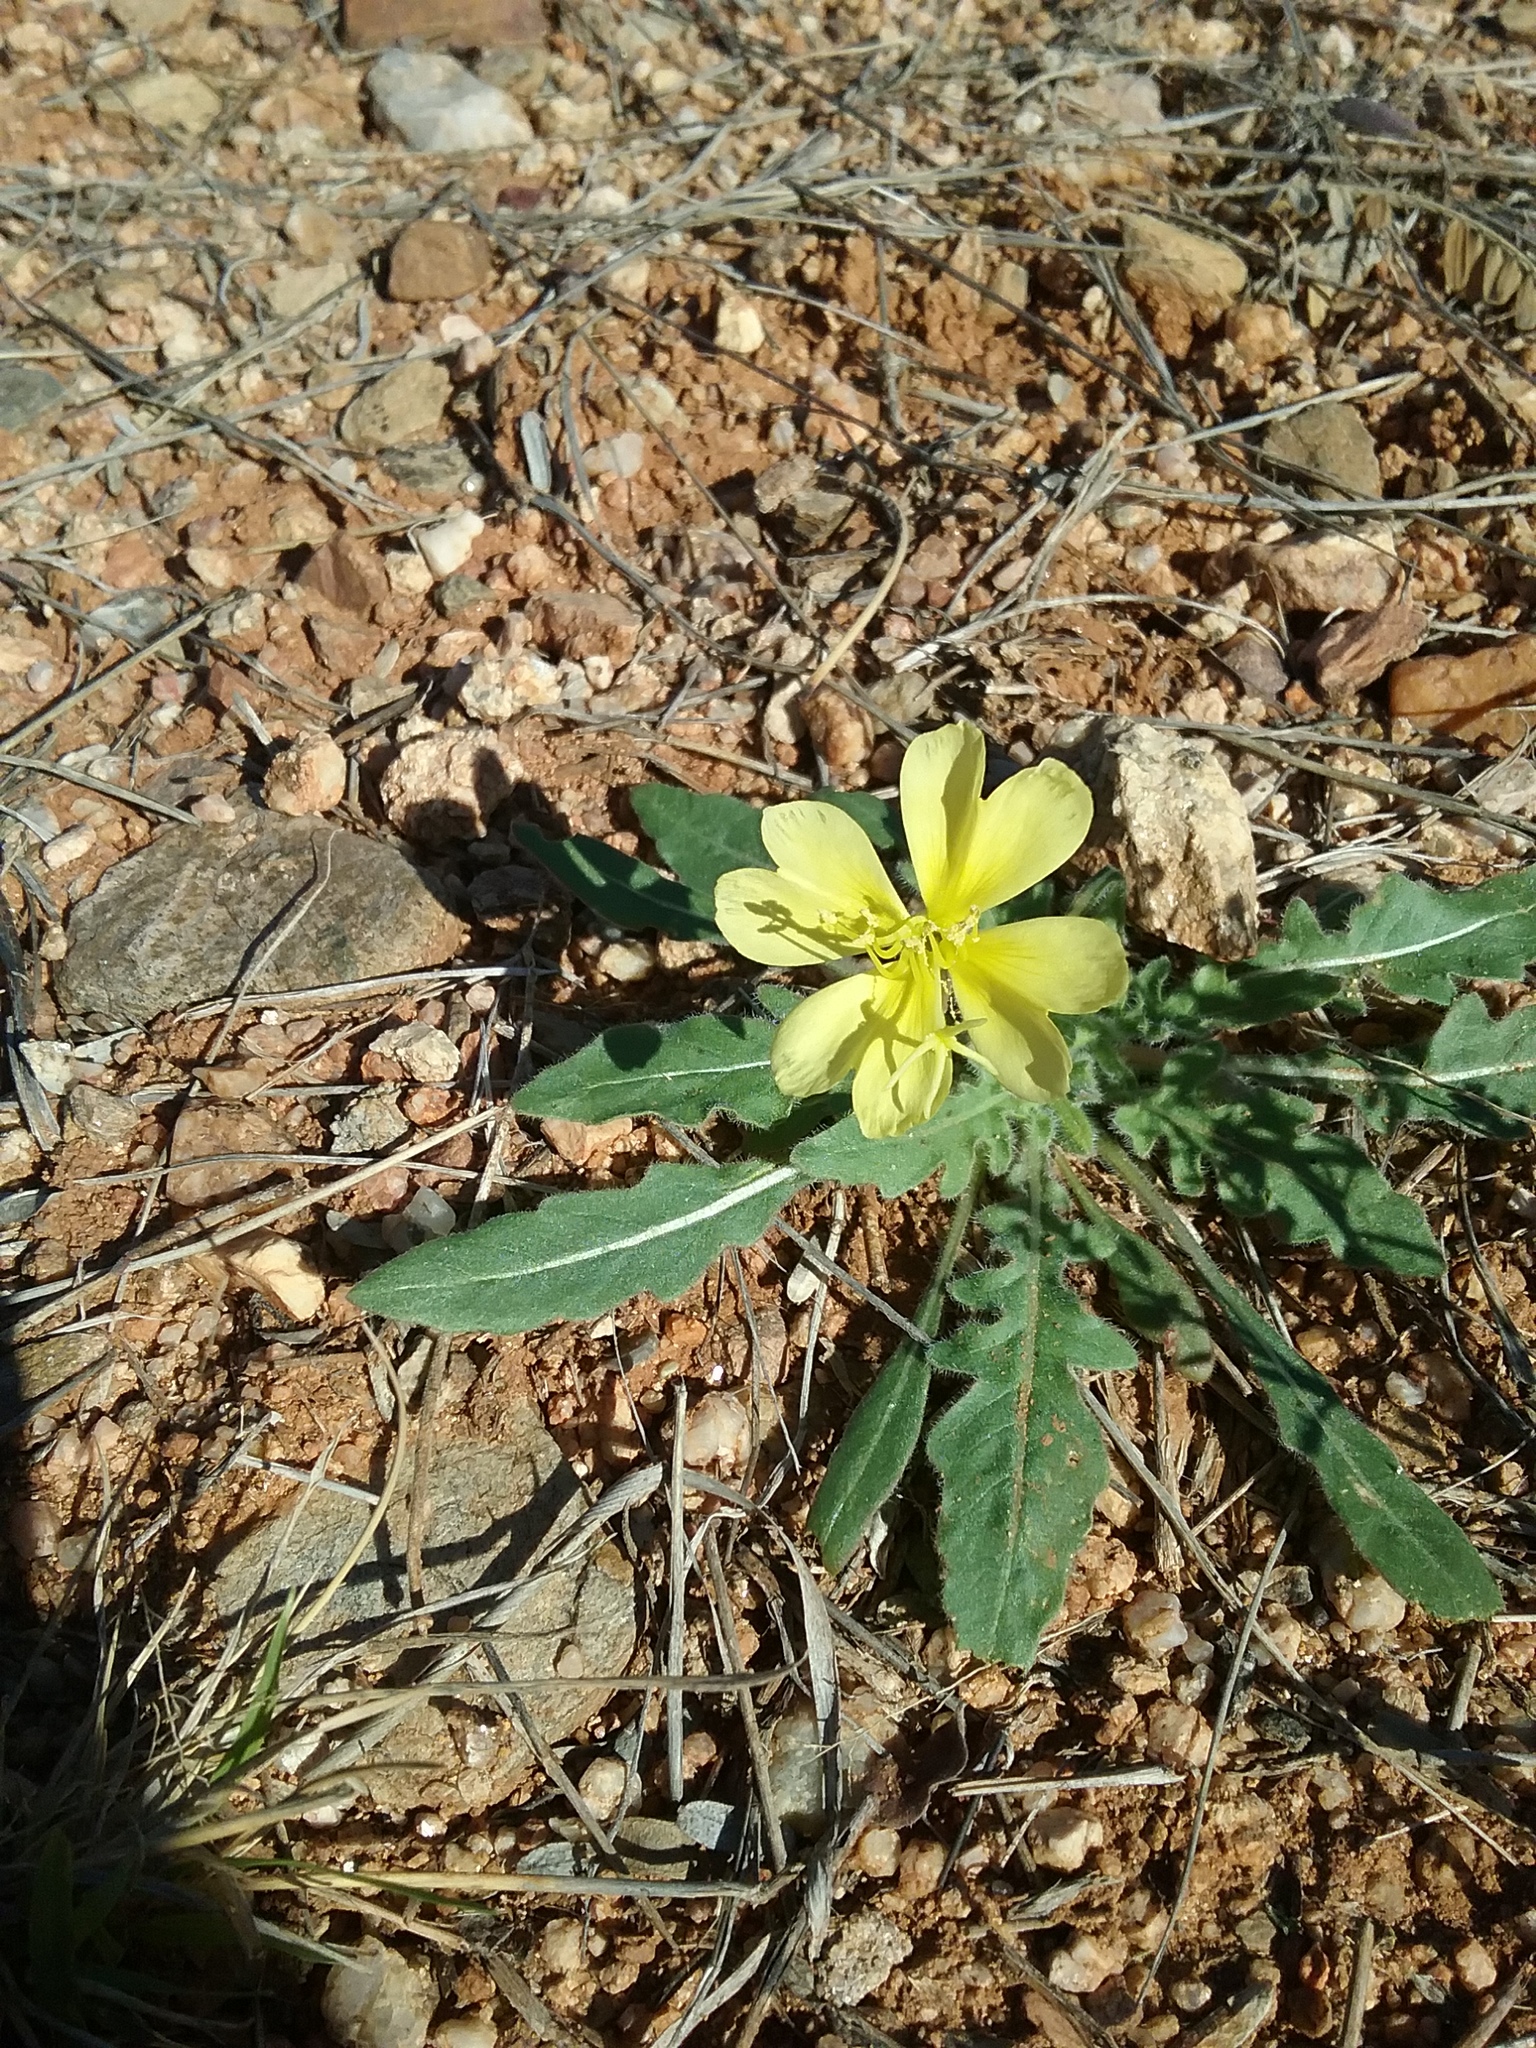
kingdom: Plantae
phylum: Tracheophyta
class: Magnoliopsida
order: Myrtales
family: Onagraceae
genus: Oenothera
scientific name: Oenothera primiveris
